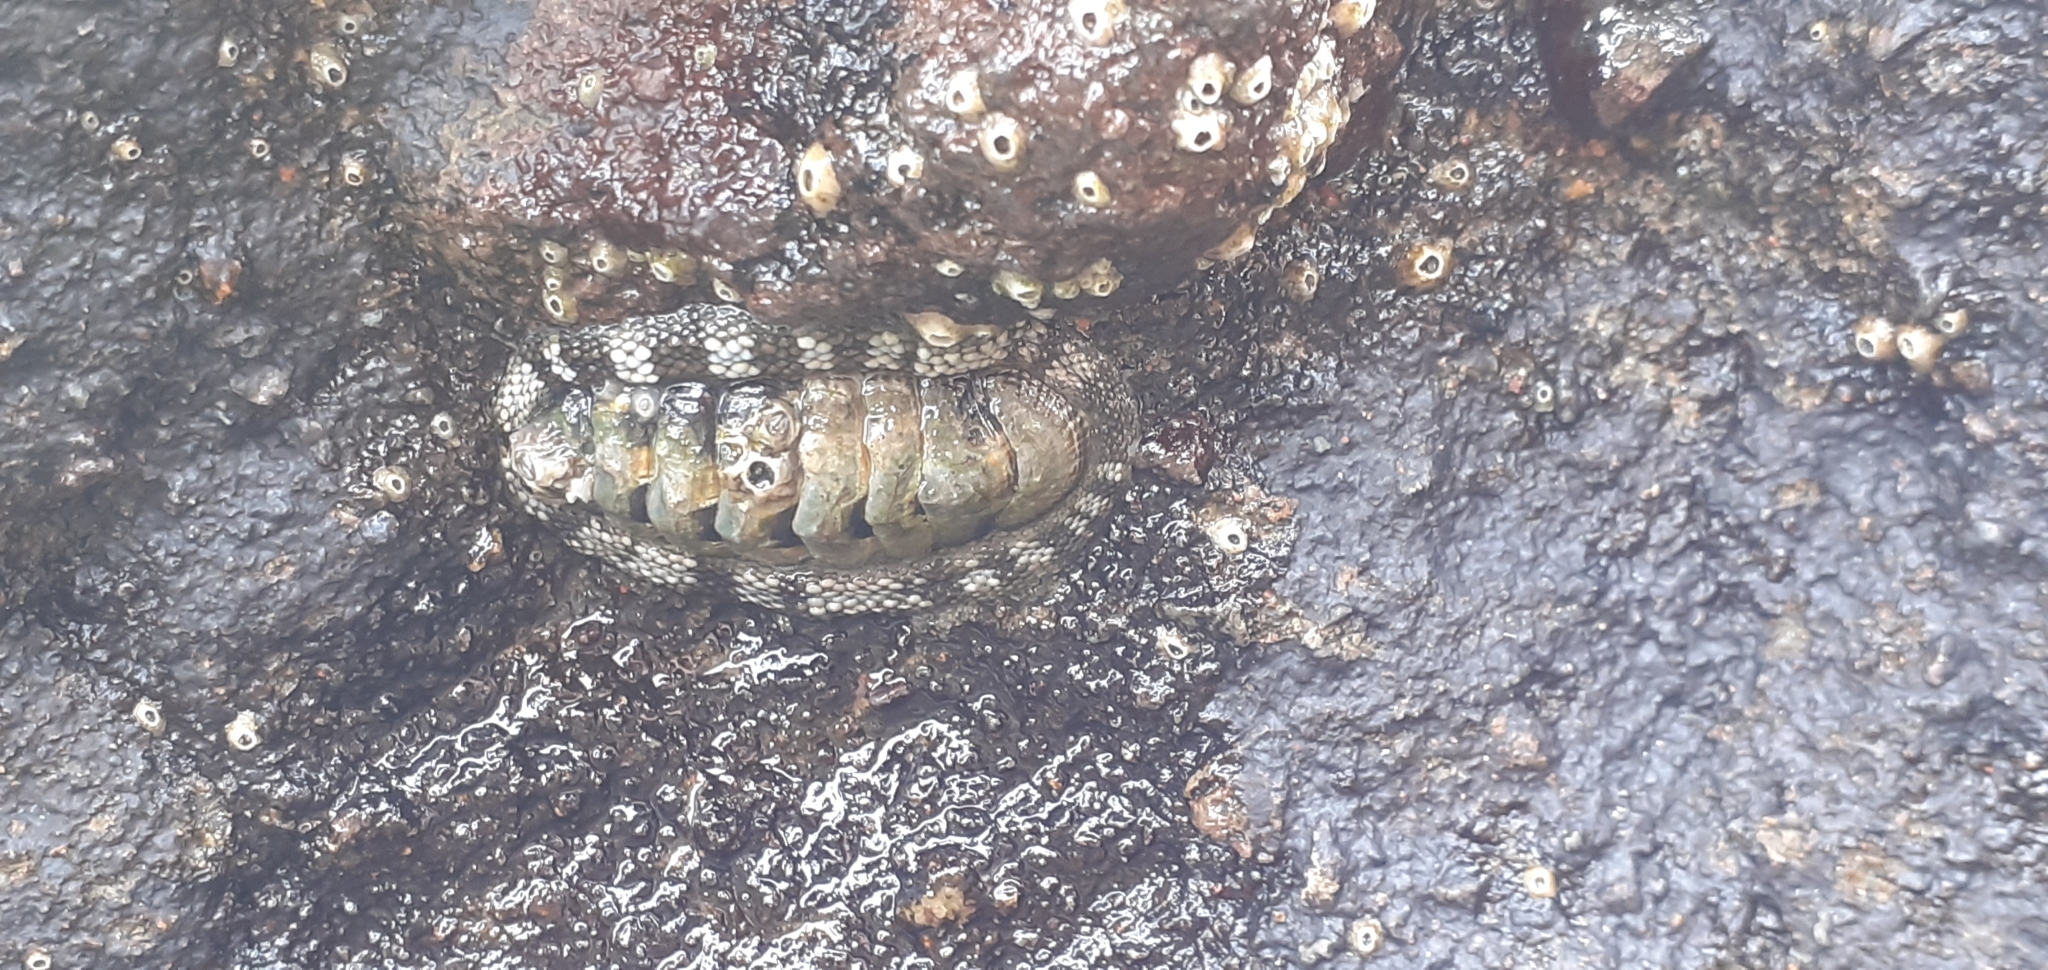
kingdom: Animalia
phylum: Mollusca
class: Polyplacophora
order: Chitonida
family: Chitonidae
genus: Sypharochiton
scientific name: Sypharochiton pelliserpentis
